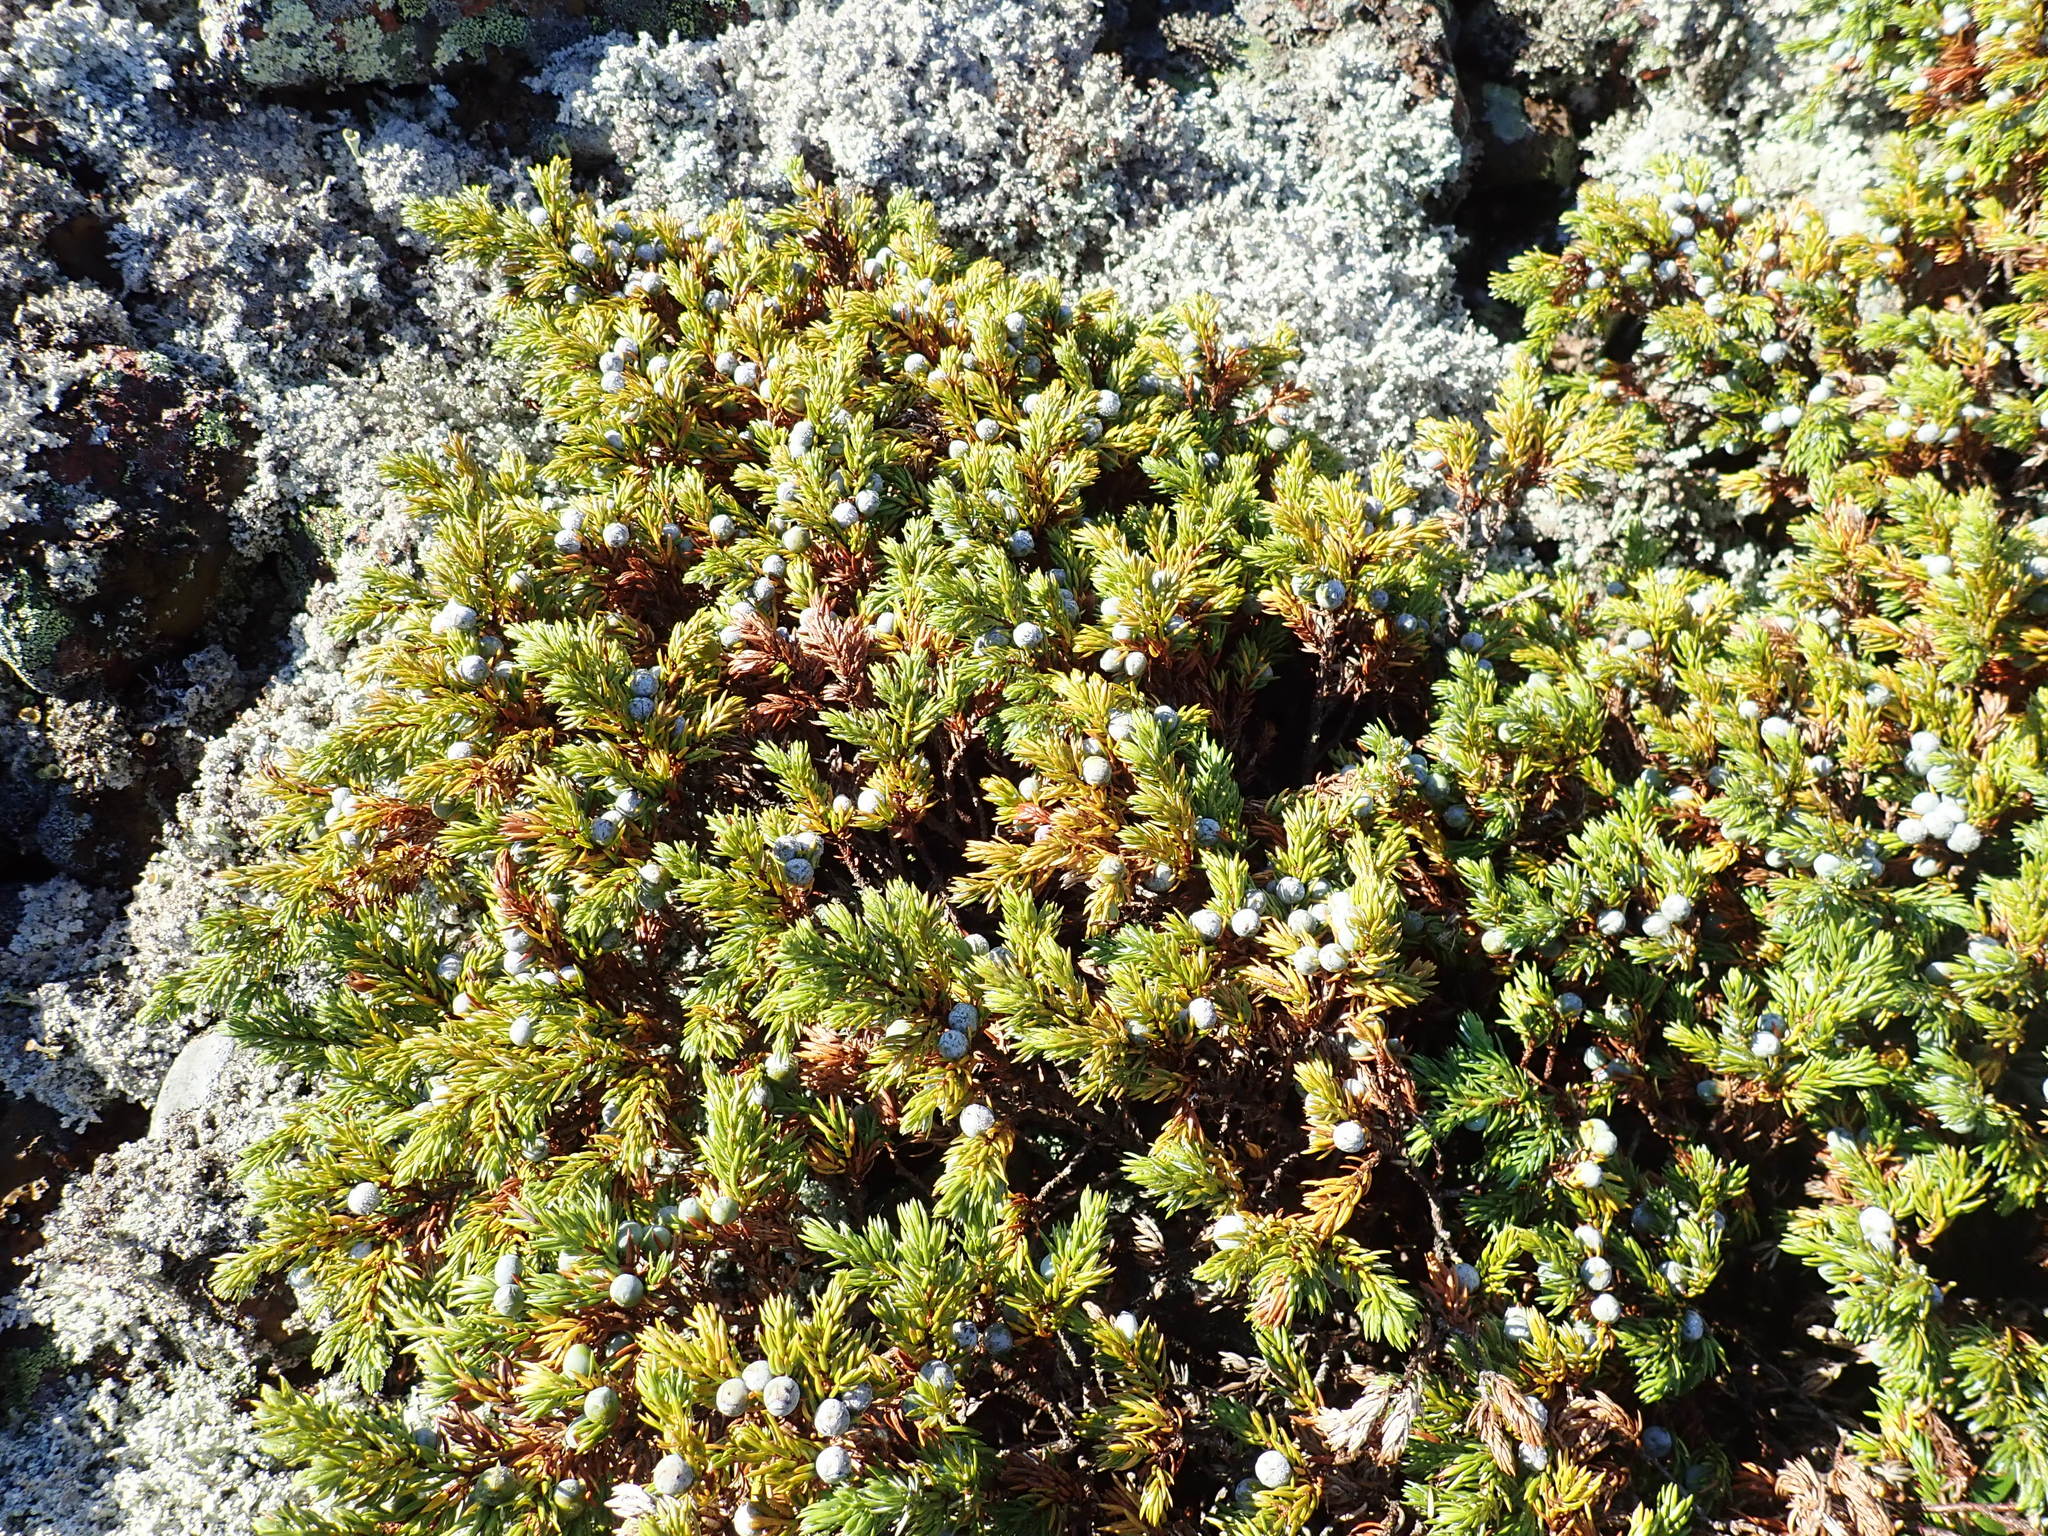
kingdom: Plantae
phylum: Tracheophyta
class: Pinopsida
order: Pinales
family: Cupressaceae
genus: Juniperus
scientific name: Juniperus communis
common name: Common juniper
